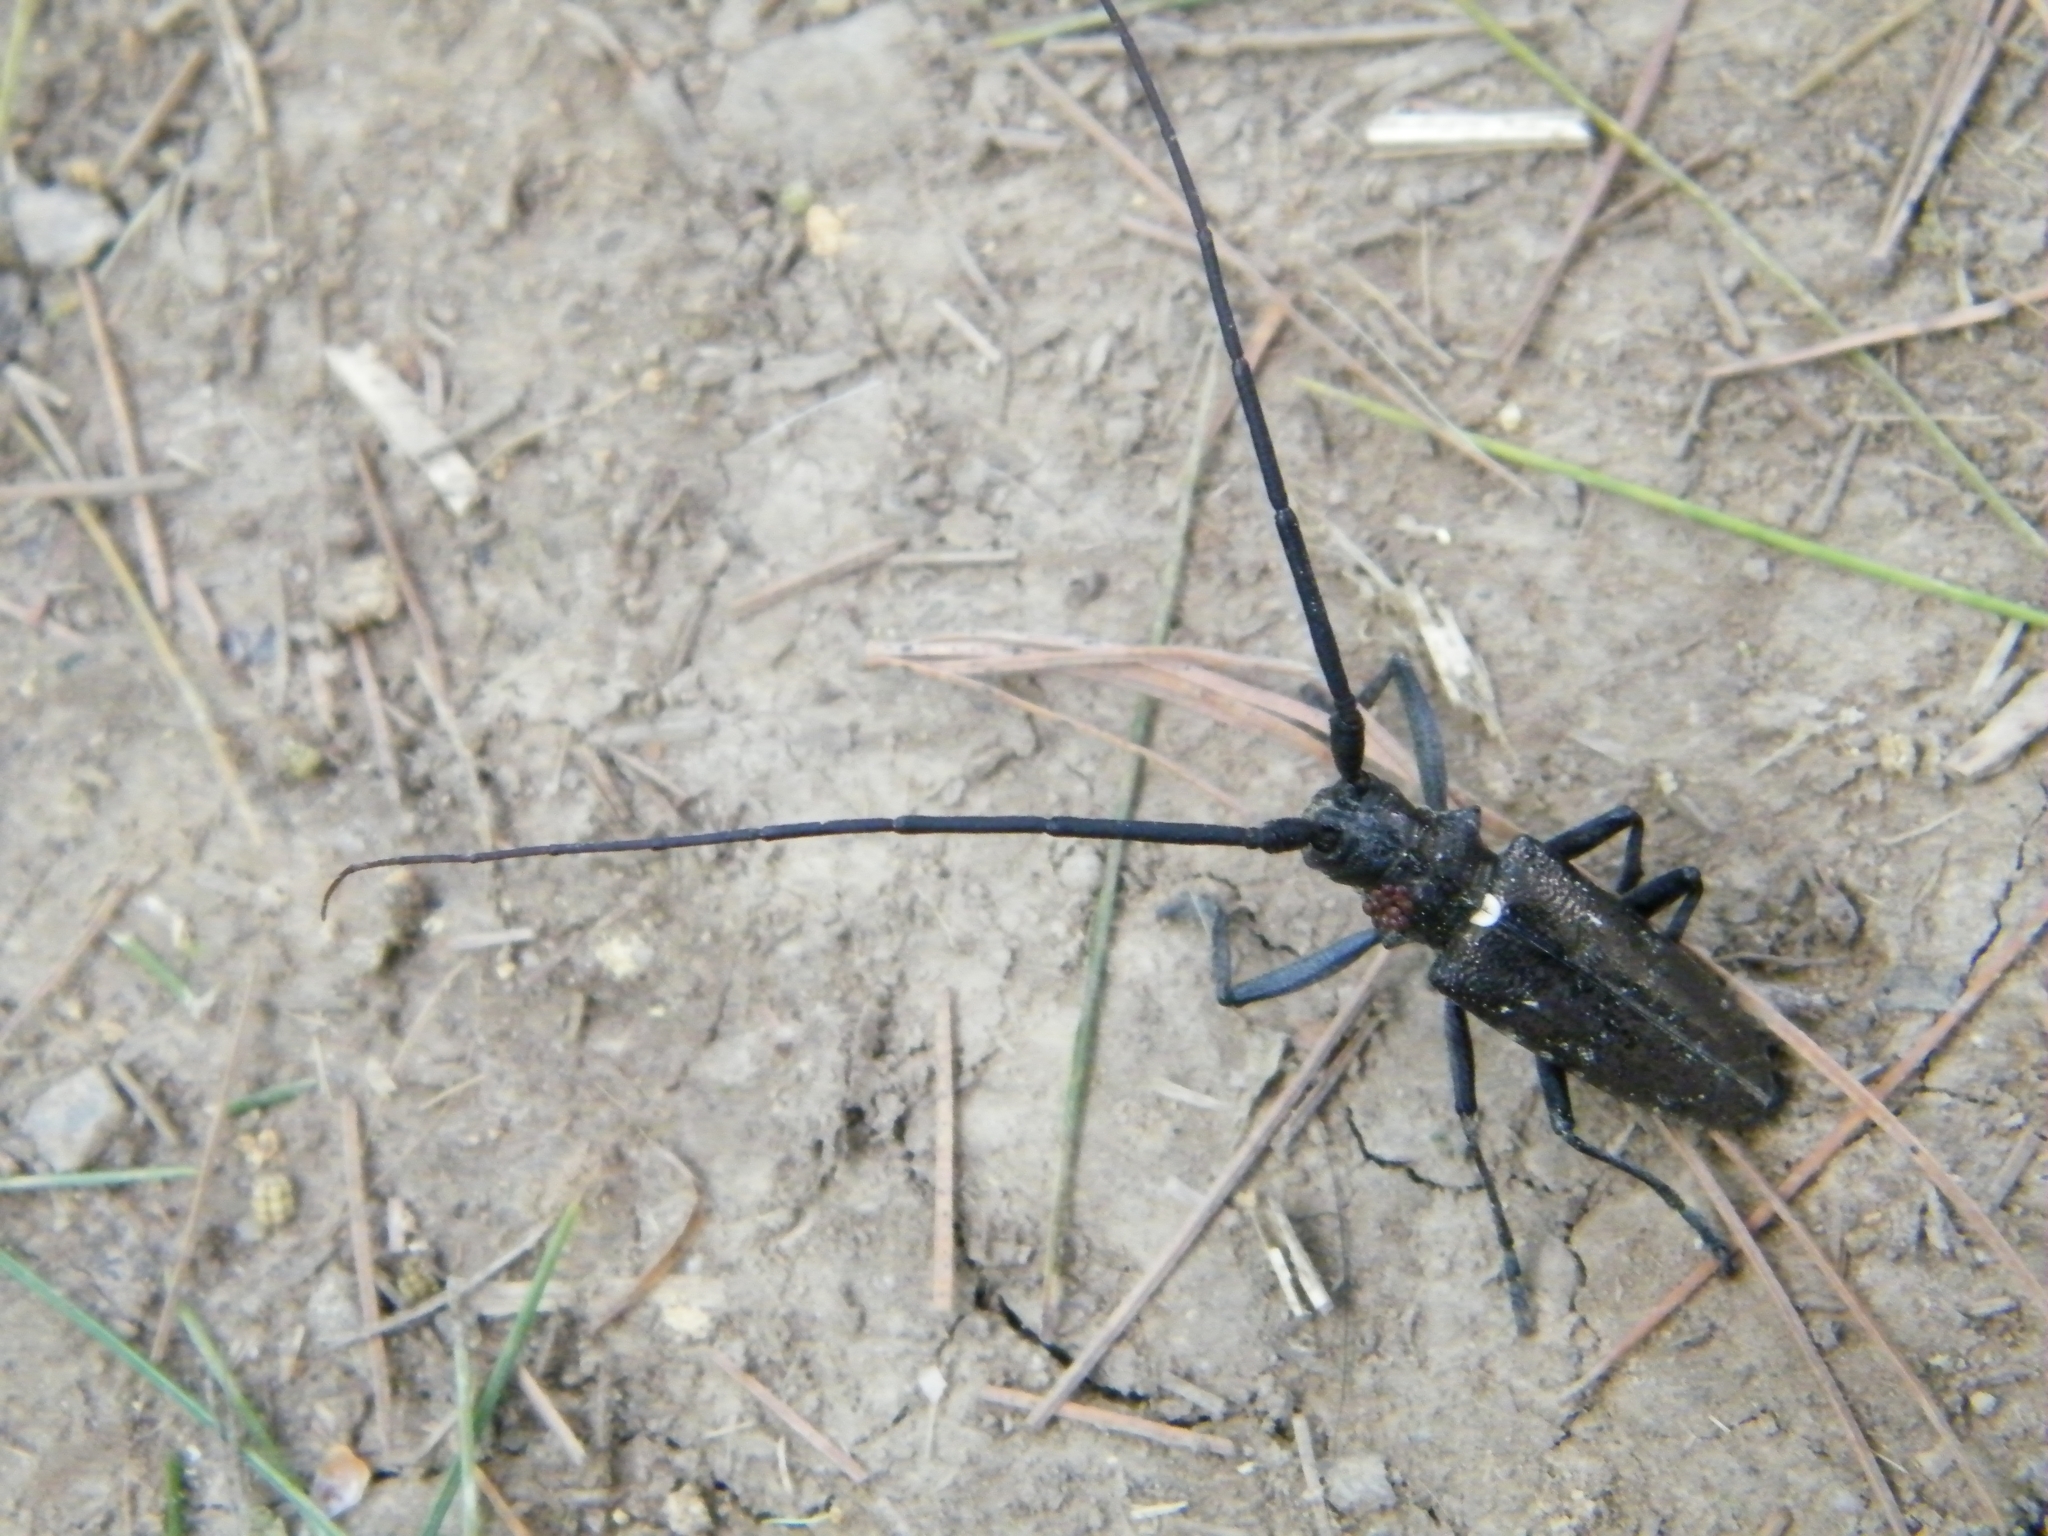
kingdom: Animalia
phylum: Arthropoda
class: Insecta
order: Coleoptera
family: Cerambycidae
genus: Monochamus
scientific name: Monochamus scutellatus
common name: White-spotted sawyer beetle
